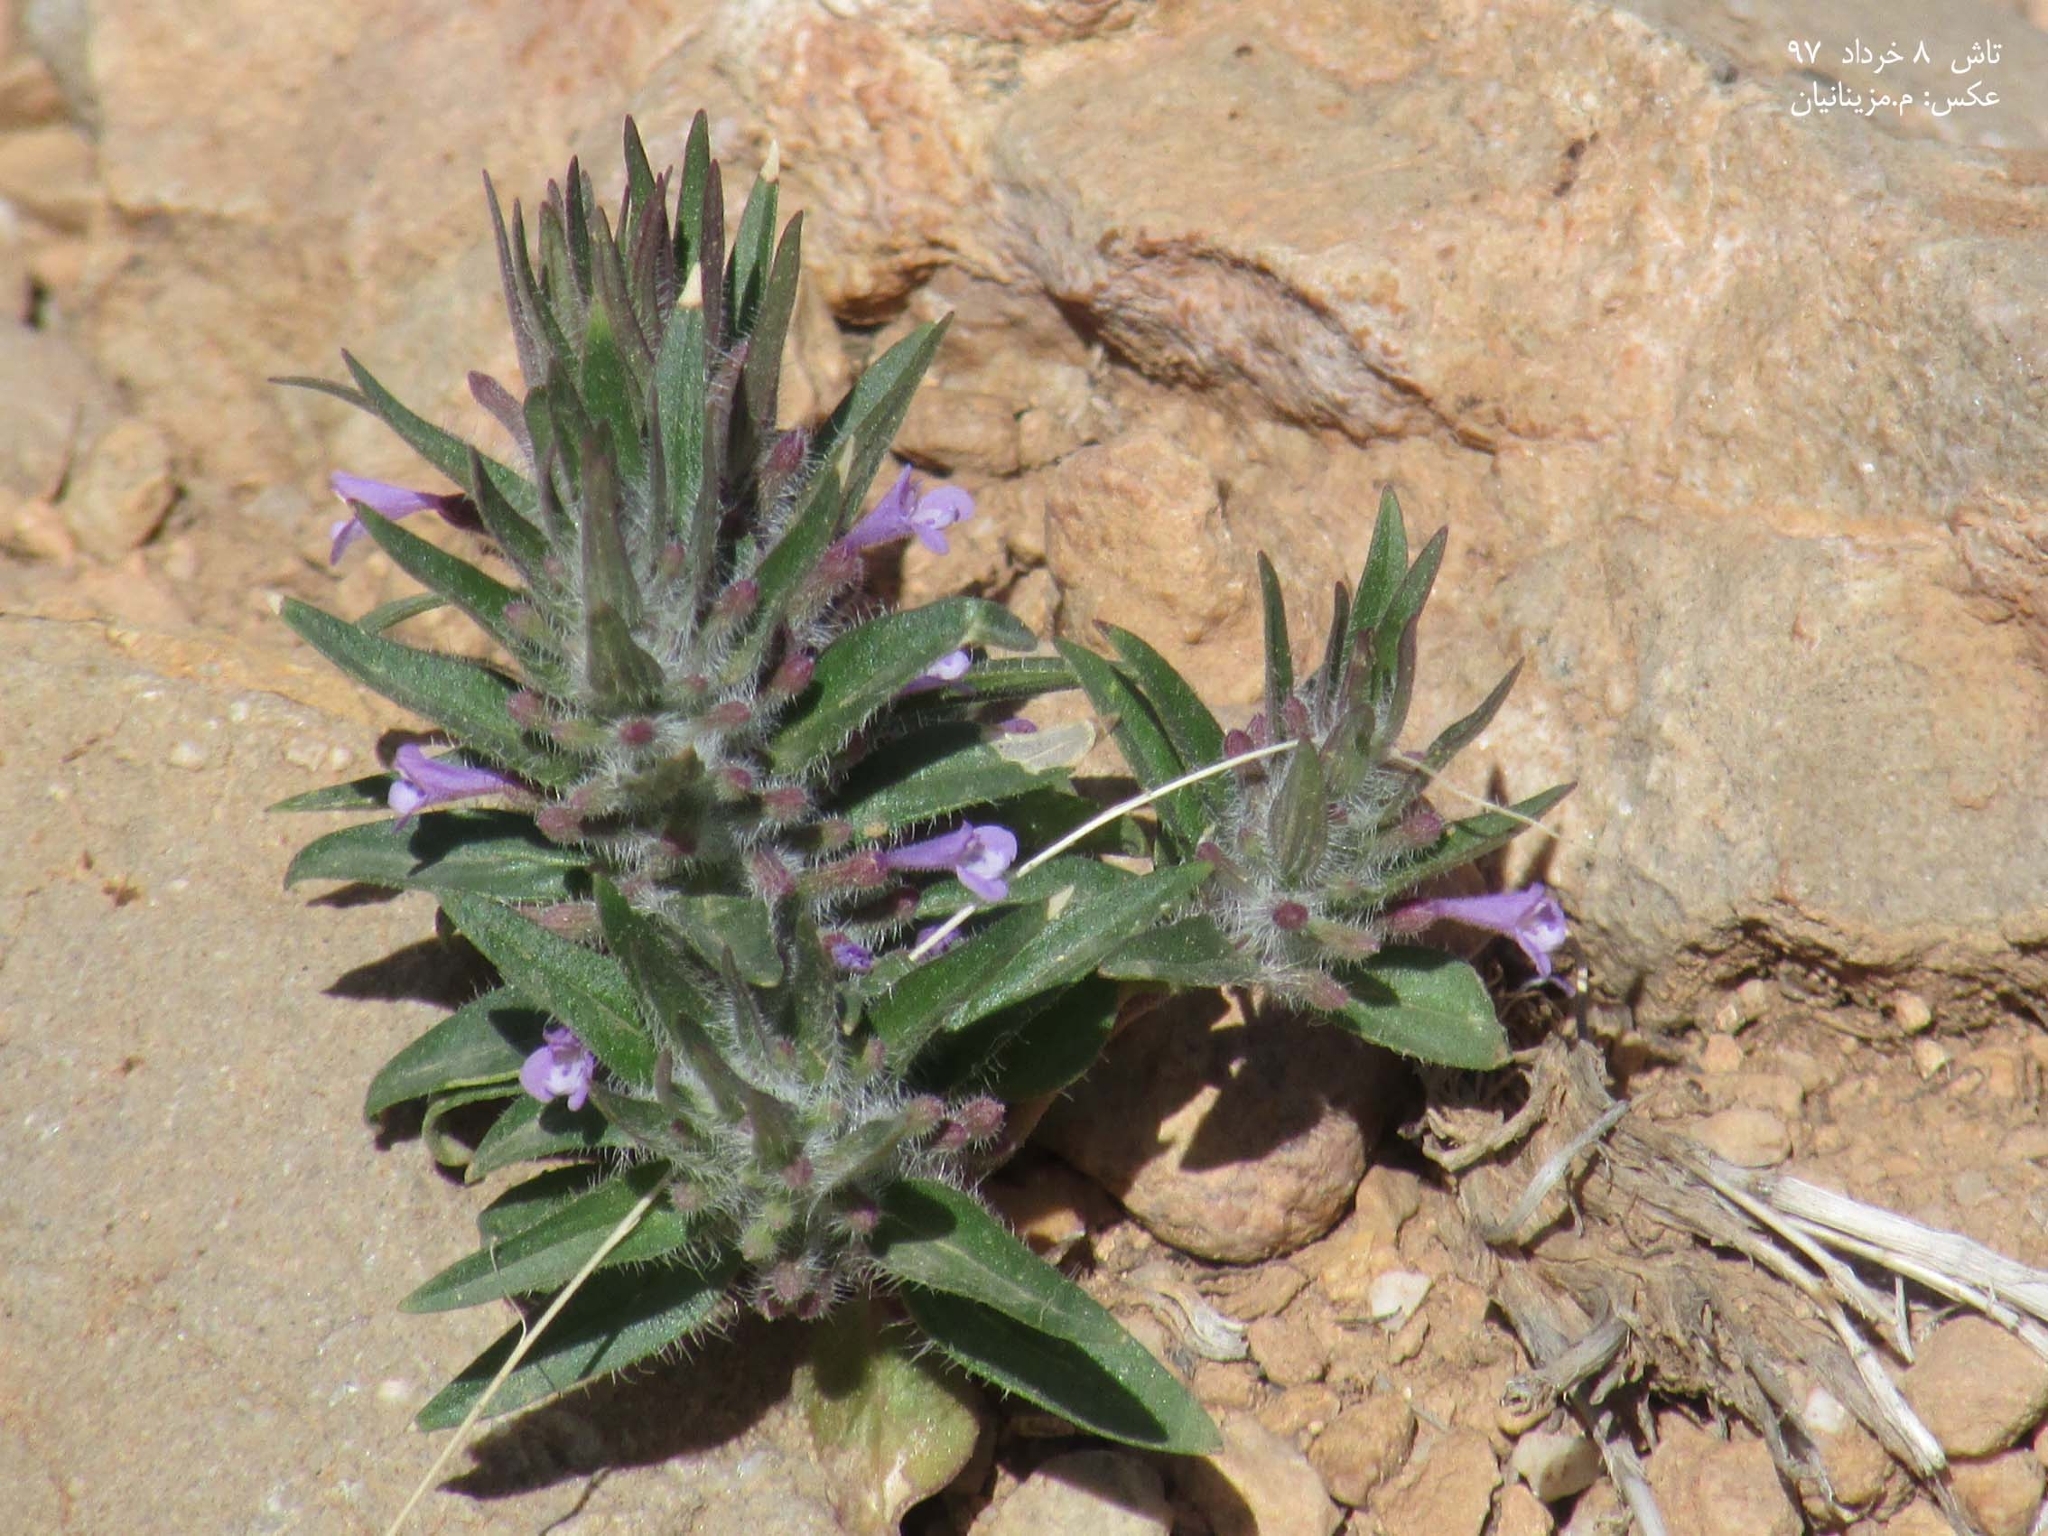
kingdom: Plantae
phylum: Tracheophyta
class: Magnoliopsida
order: Lamiales
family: Lamiaceae
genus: Ziziphora
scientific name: Ziziphora tenuior
